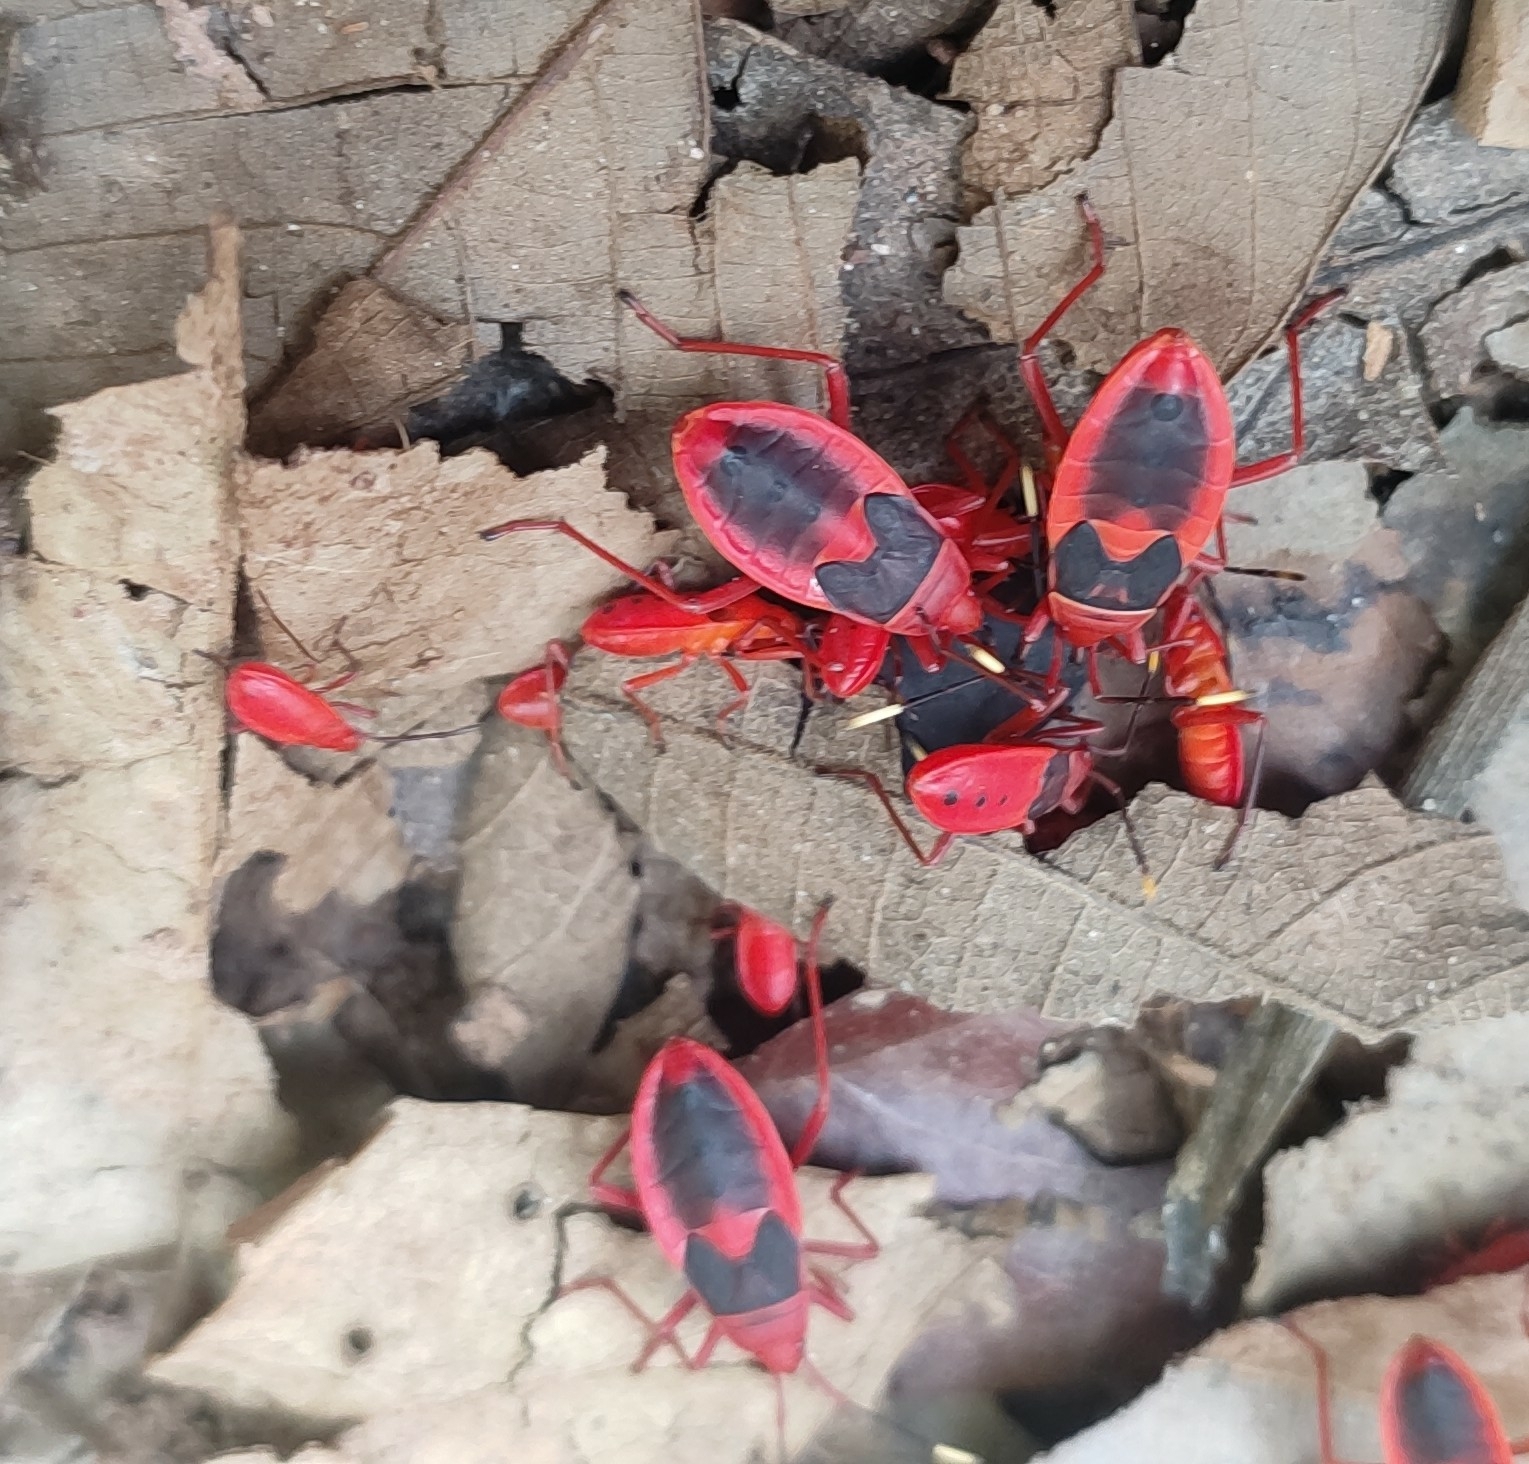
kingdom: Animalia
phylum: Arthropoda
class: Insecta
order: Hemiptera
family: Pyrrhocoridae
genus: Probergrothius
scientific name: Probergrothius
